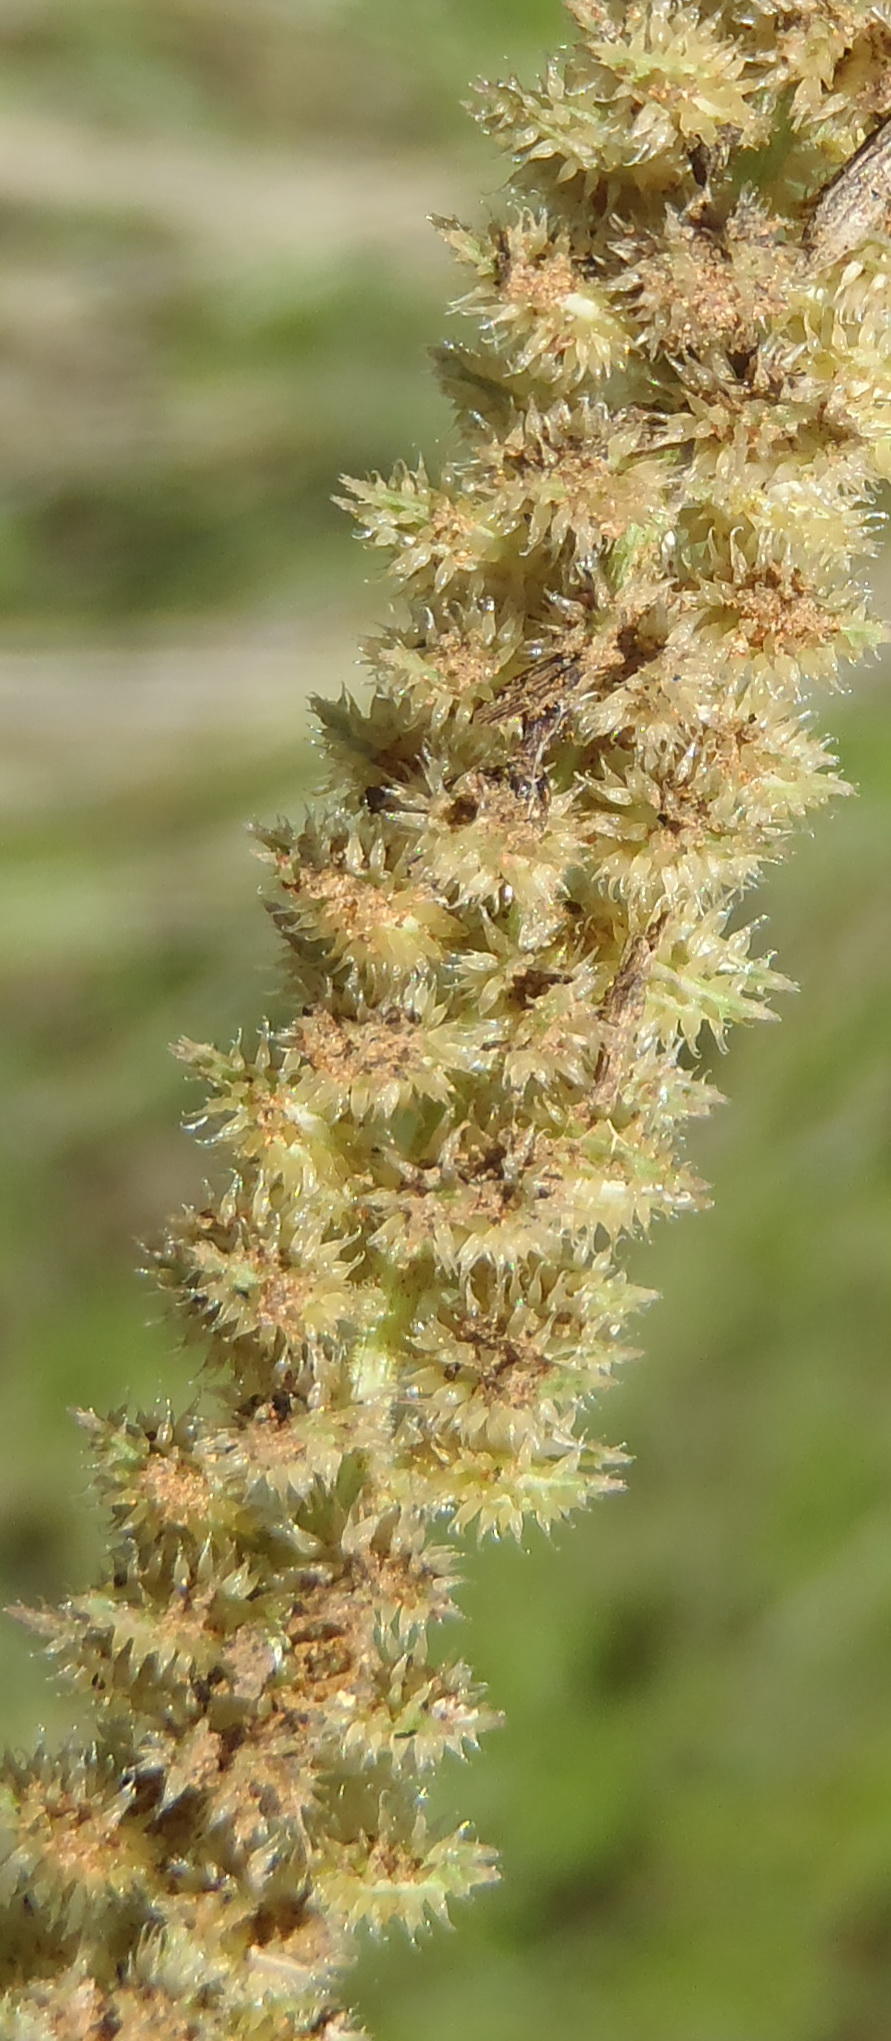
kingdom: Plantae
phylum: Tracheophyta
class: Liliopsida
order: Poales
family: Poaceae
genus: Tragus
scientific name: Tragus berteronianus
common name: African bur-grass
